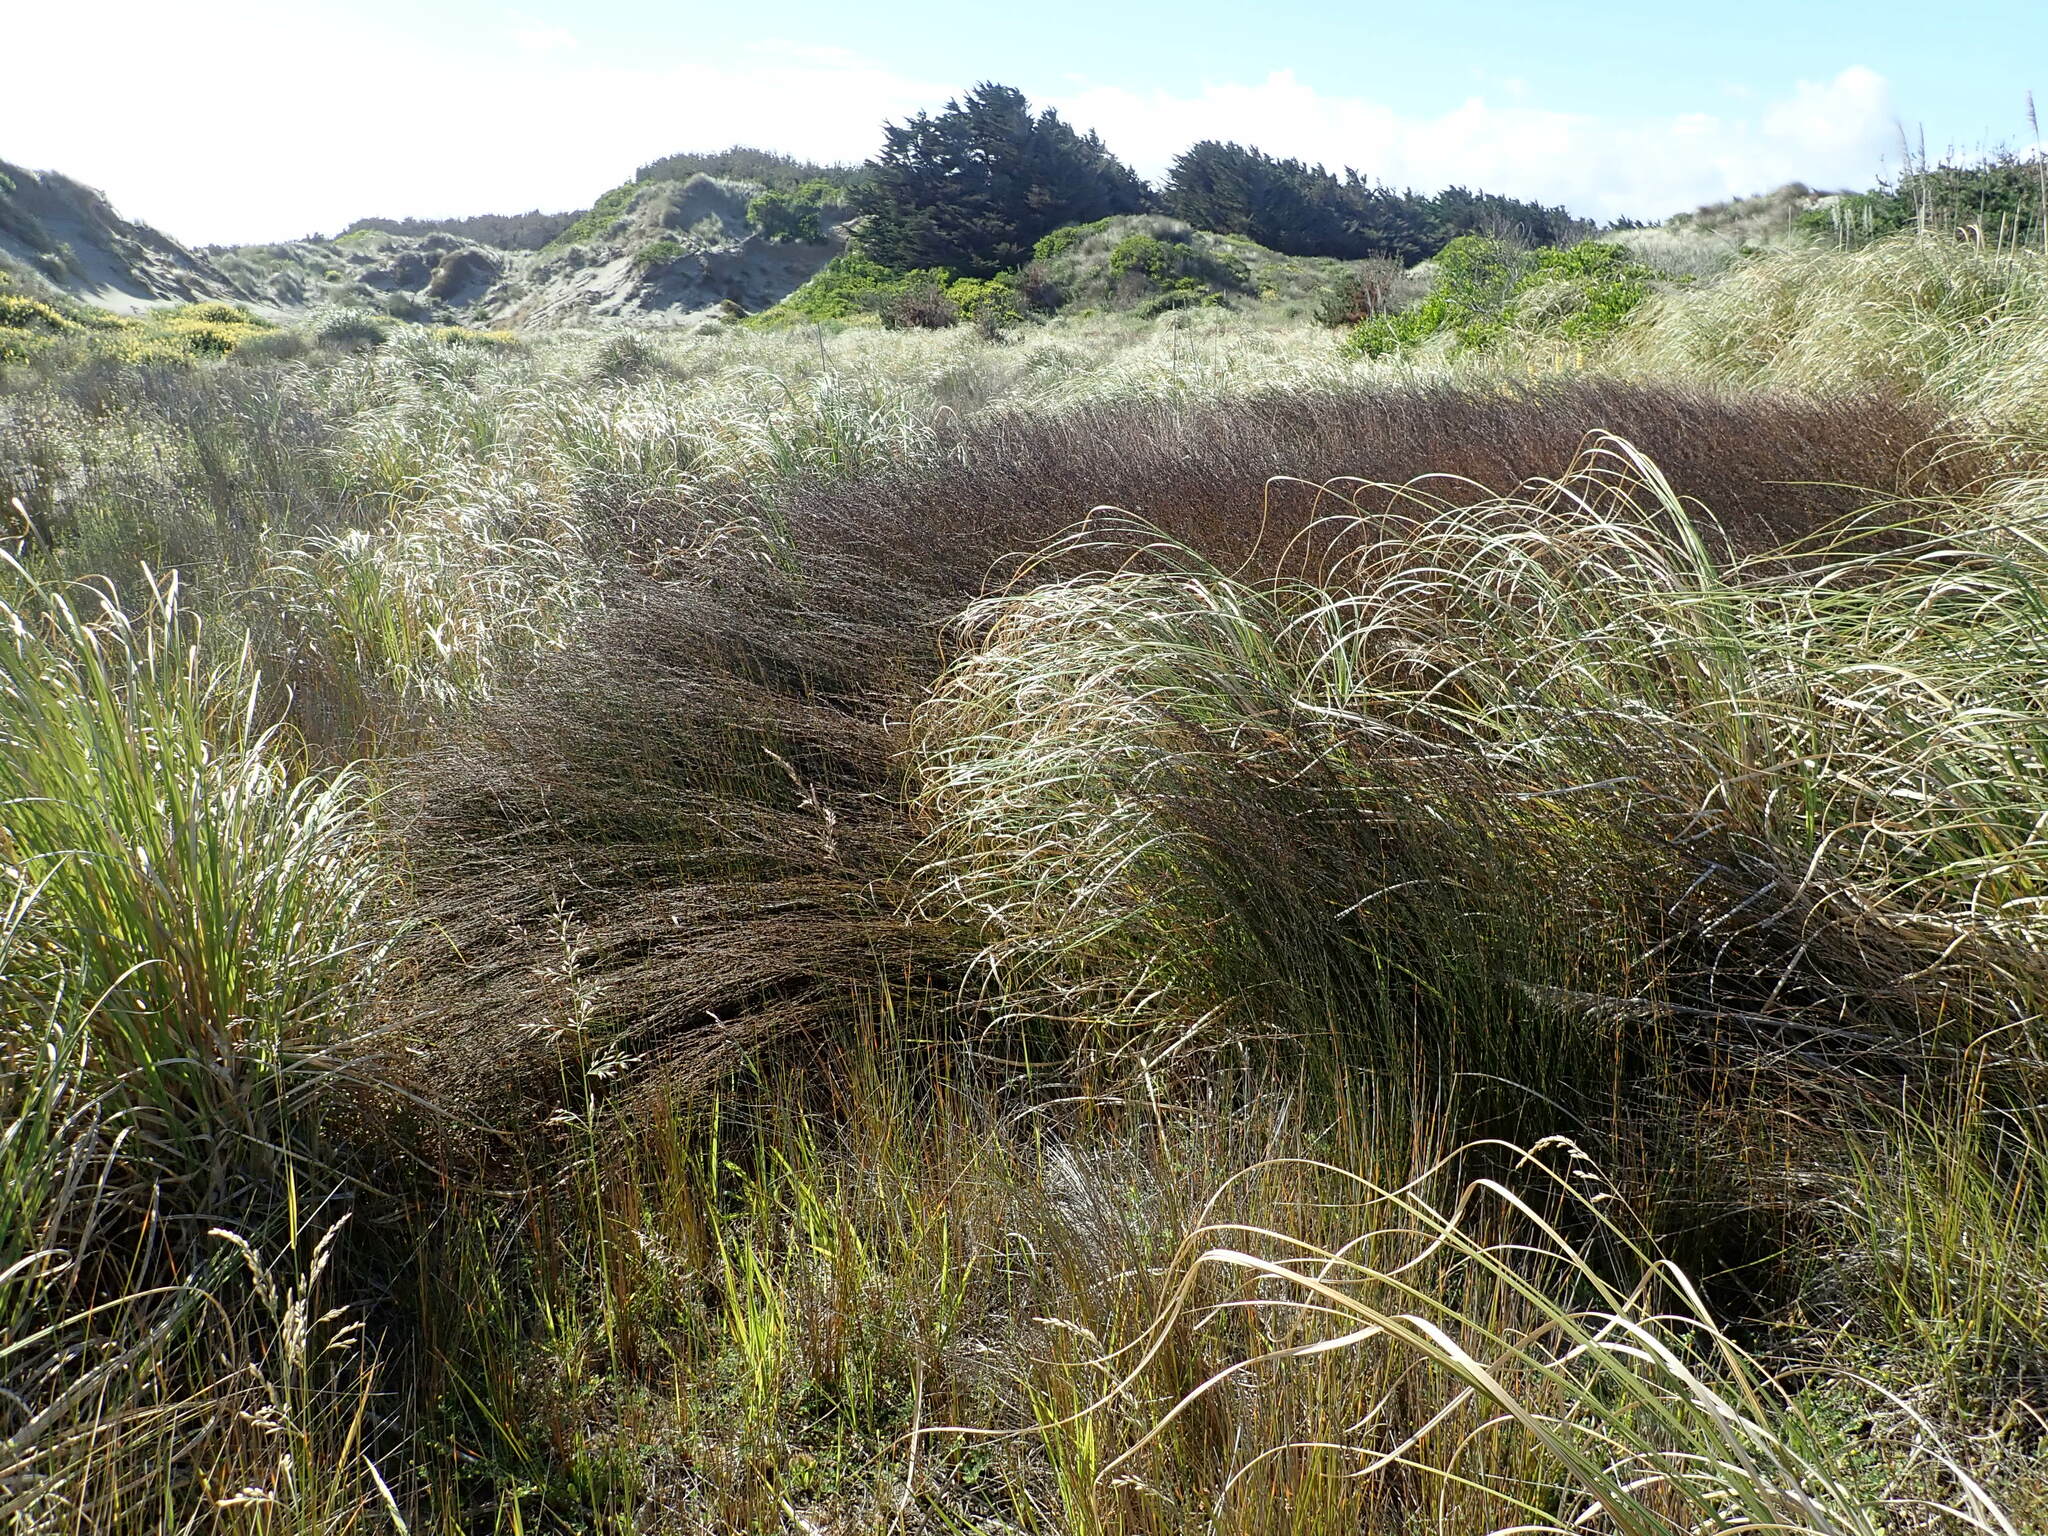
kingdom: Plantae
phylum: Tracheophyta
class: Liliopsida
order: Poales
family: Restionaceae
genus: Apodasmia
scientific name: Apodasmia similis
